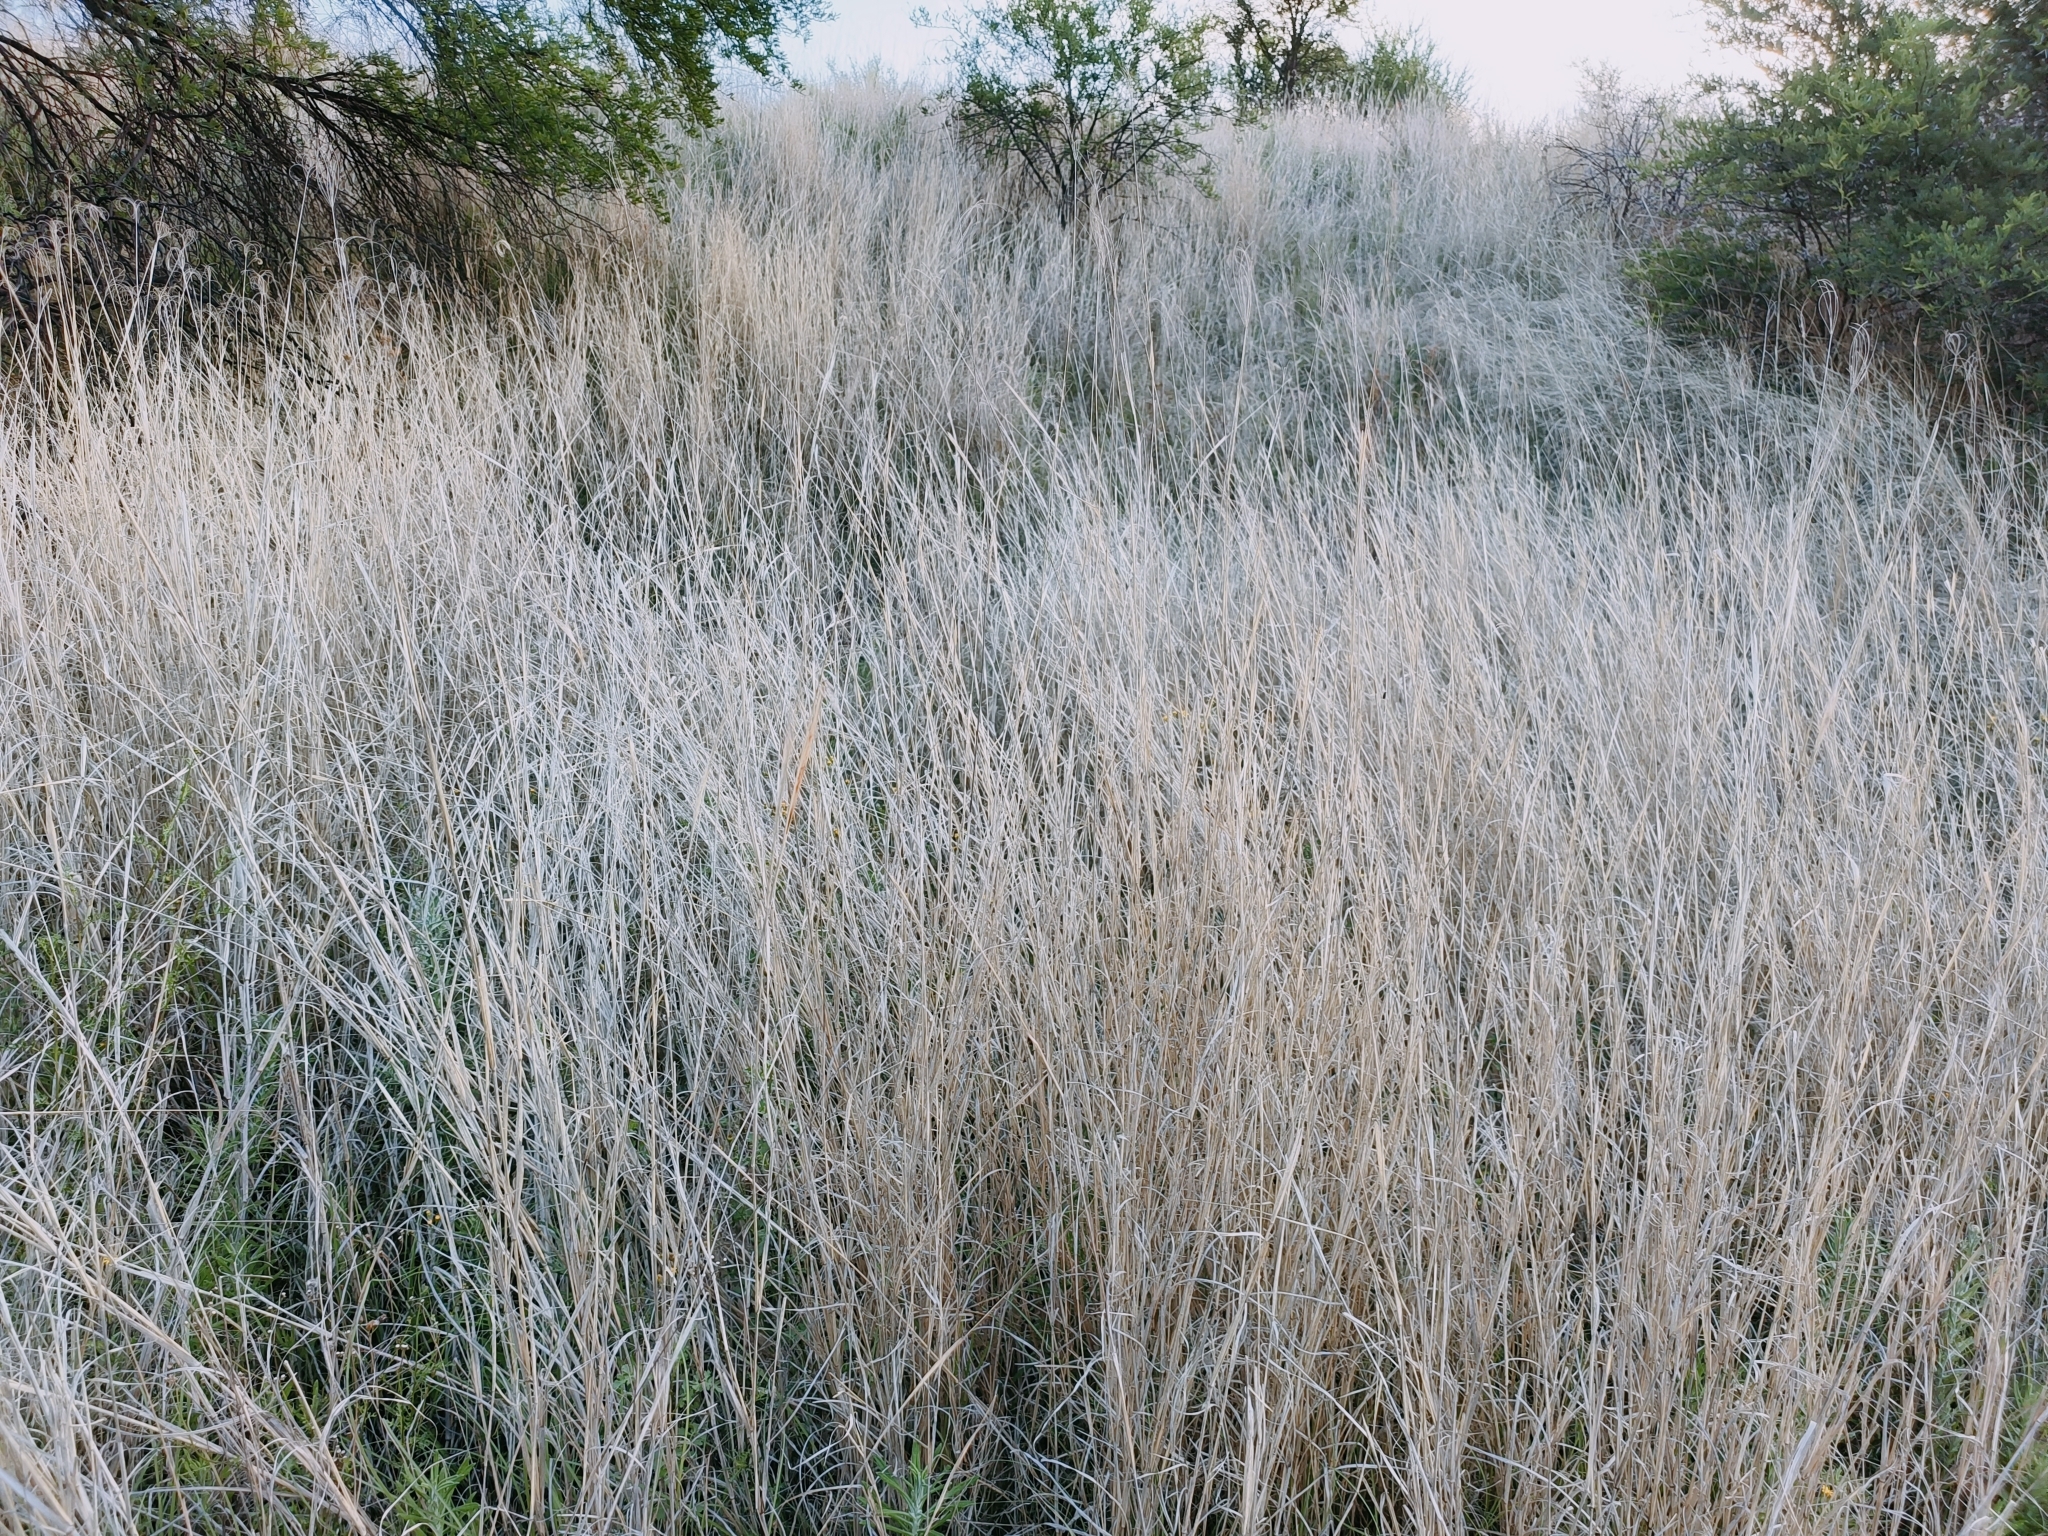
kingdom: Plantae
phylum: Tracheophyta
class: Liliopsida
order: Poales
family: Poaceae
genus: Chloris
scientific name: Chloris gayana
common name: Rhodes grass
